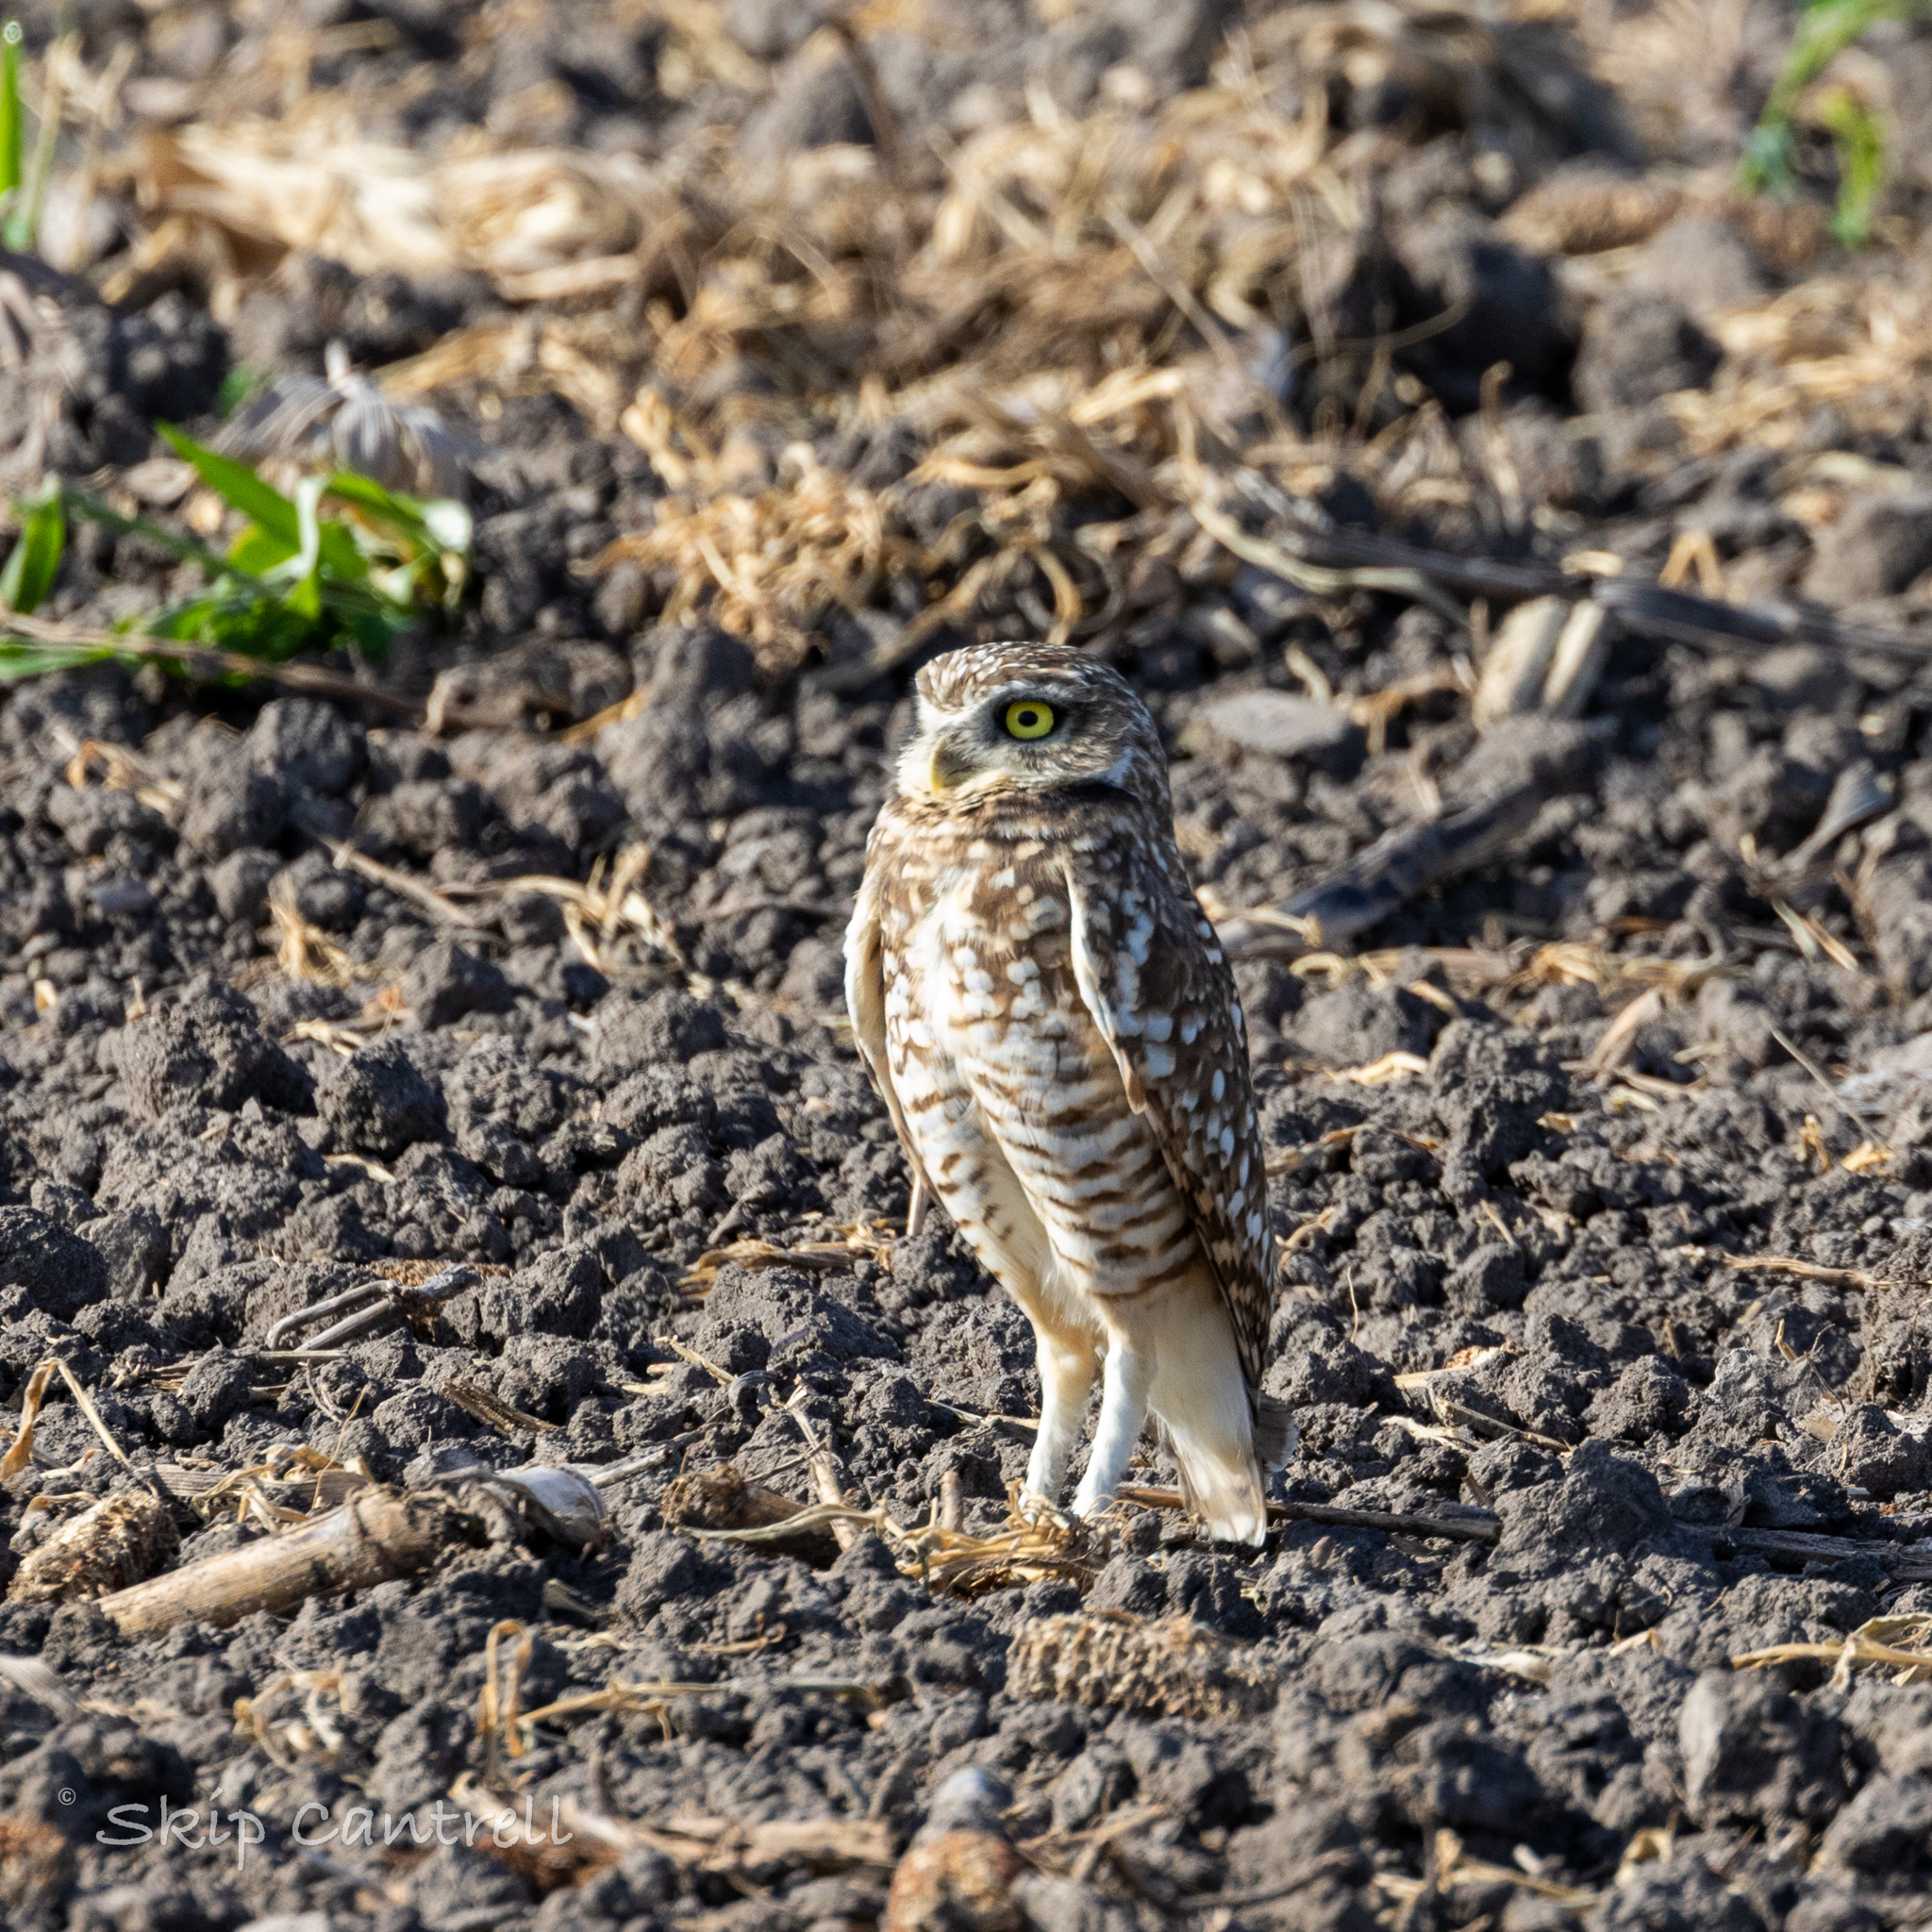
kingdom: Animalia
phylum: Chordata
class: Aves
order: Strigiformes
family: Strigidae
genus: Athene
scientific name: Athene cunicularia
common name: Burrowing owl
